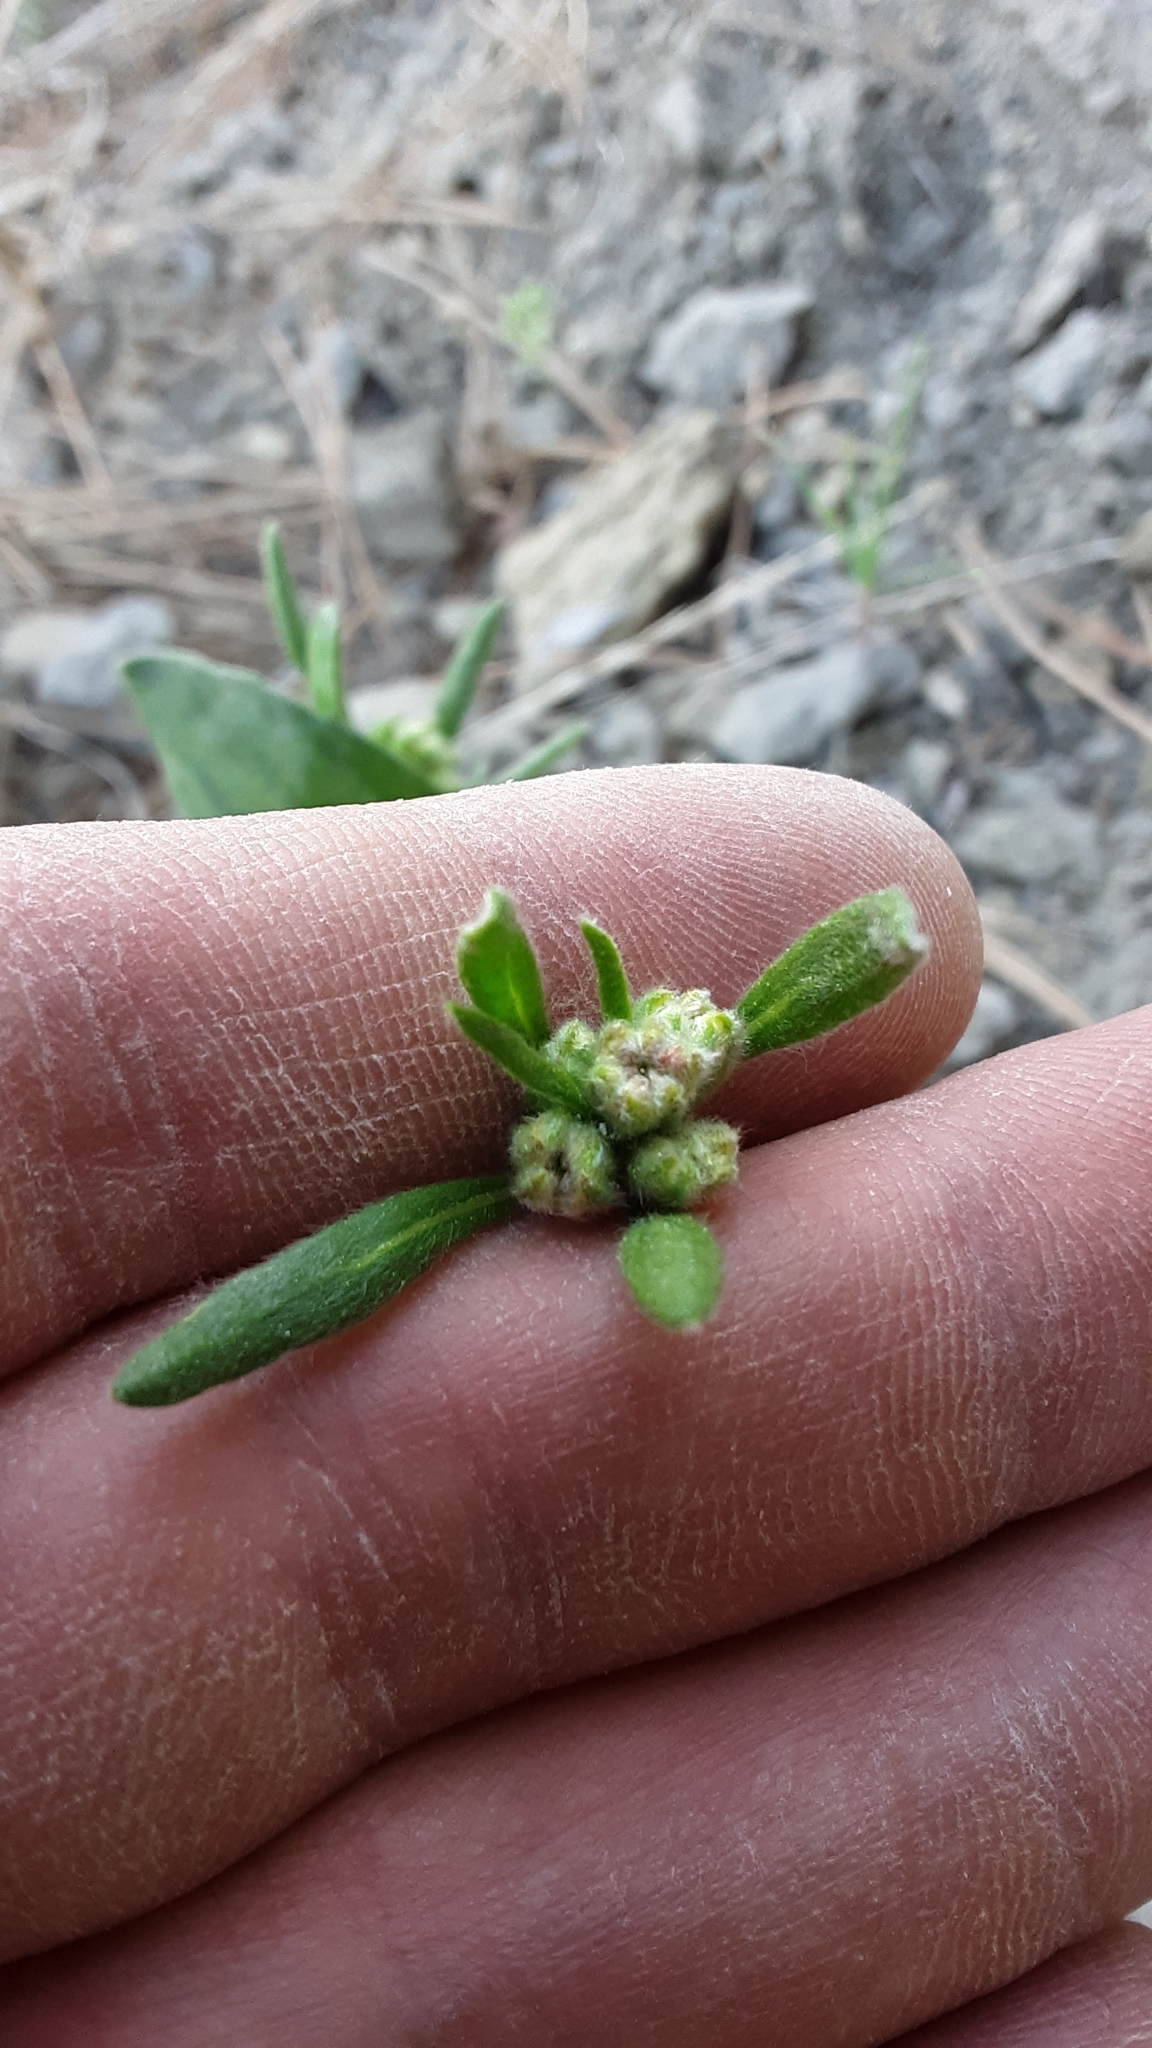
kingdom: Plantae
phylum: Tracheophyta
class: Magnoliopsida
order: Caryophyllales
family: Polygonaceae
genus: Eriogonum
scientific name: Eriogonum flavum
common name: Alpine golden wild buckwheat
